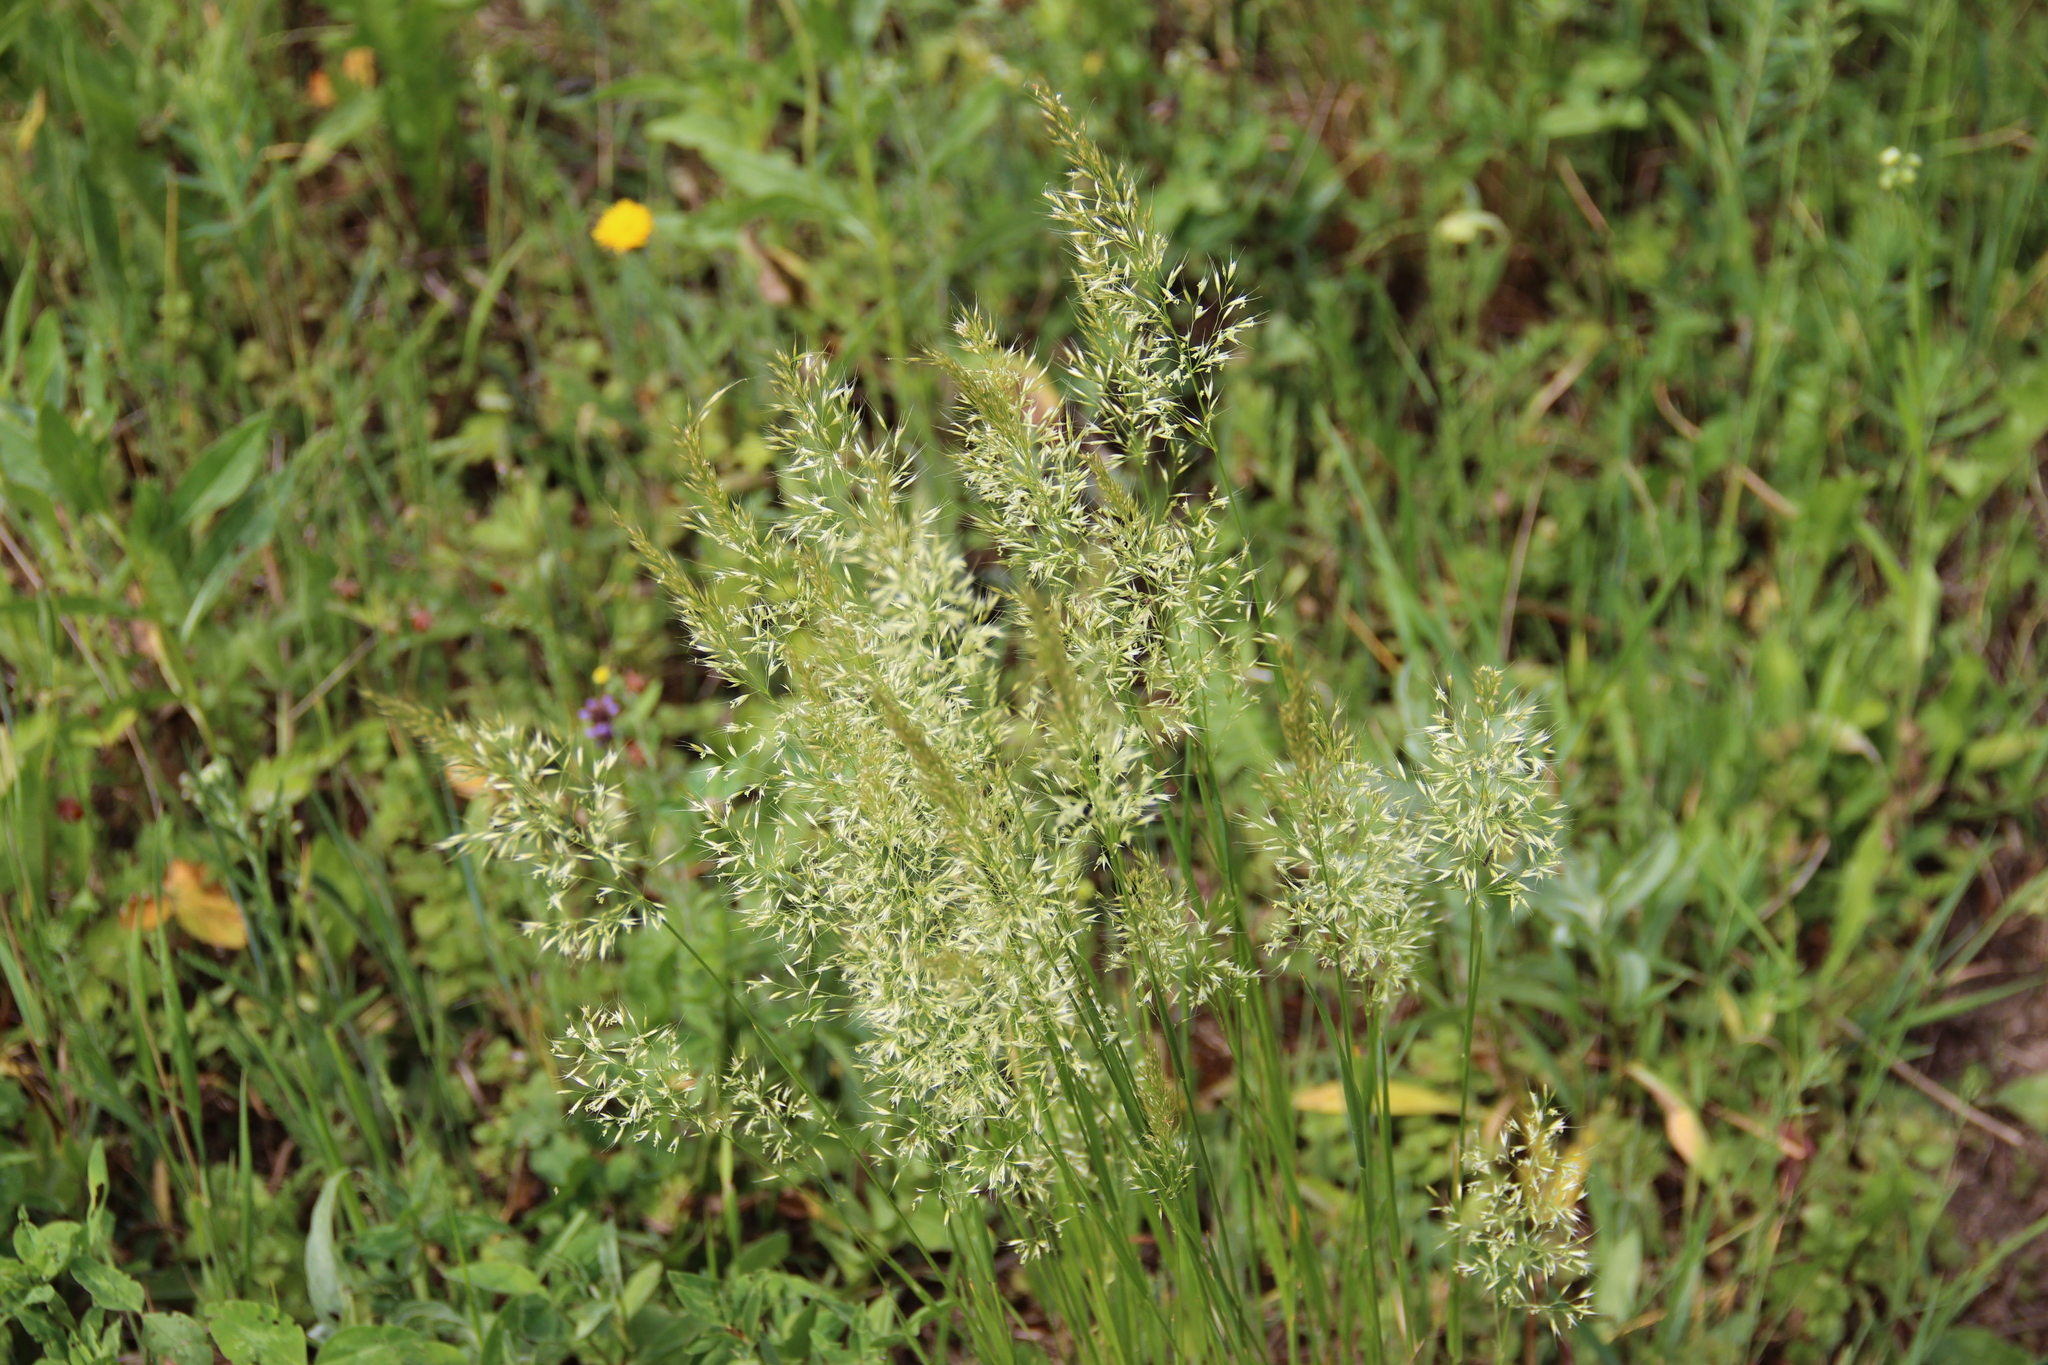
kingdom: Plantae
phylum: Tracheophyta
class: Liliopsida
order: Poales
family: Poaceae
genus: Trisetum
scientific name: Trisetum flavescens
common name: Yellow oat-grass
